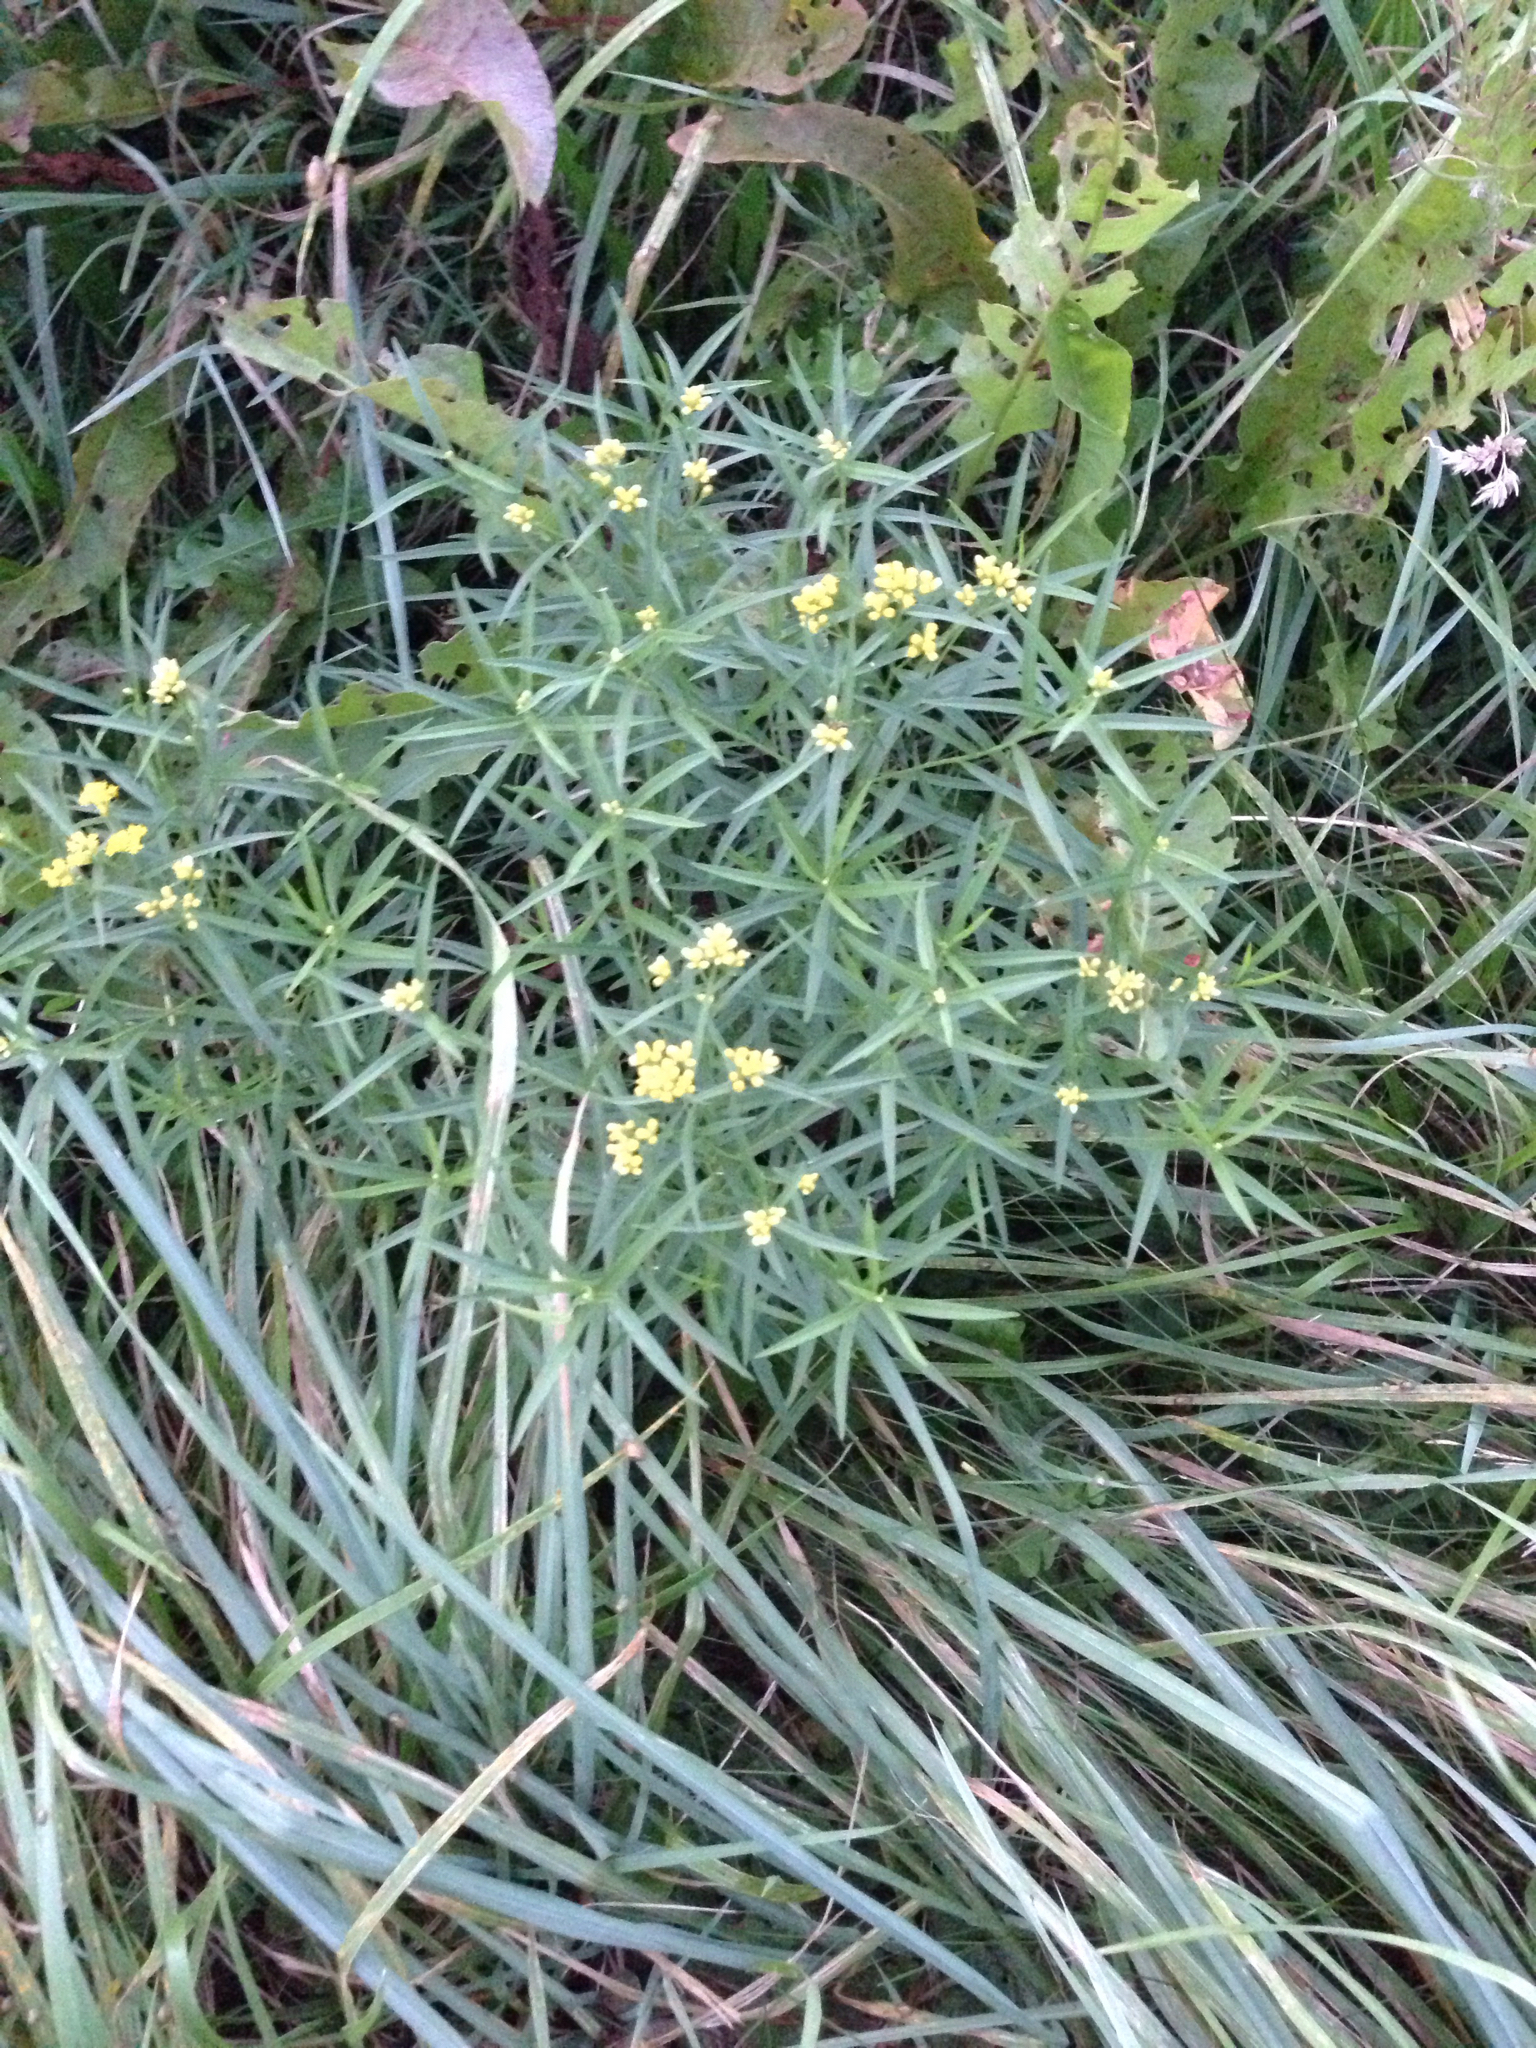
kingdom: Plantae
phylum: Tracheophyta
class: Magnoliopsida
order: Asterales
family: Asteraceae
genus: Euthamia
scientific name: Euthamia graminifolia
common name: Common goldentop
